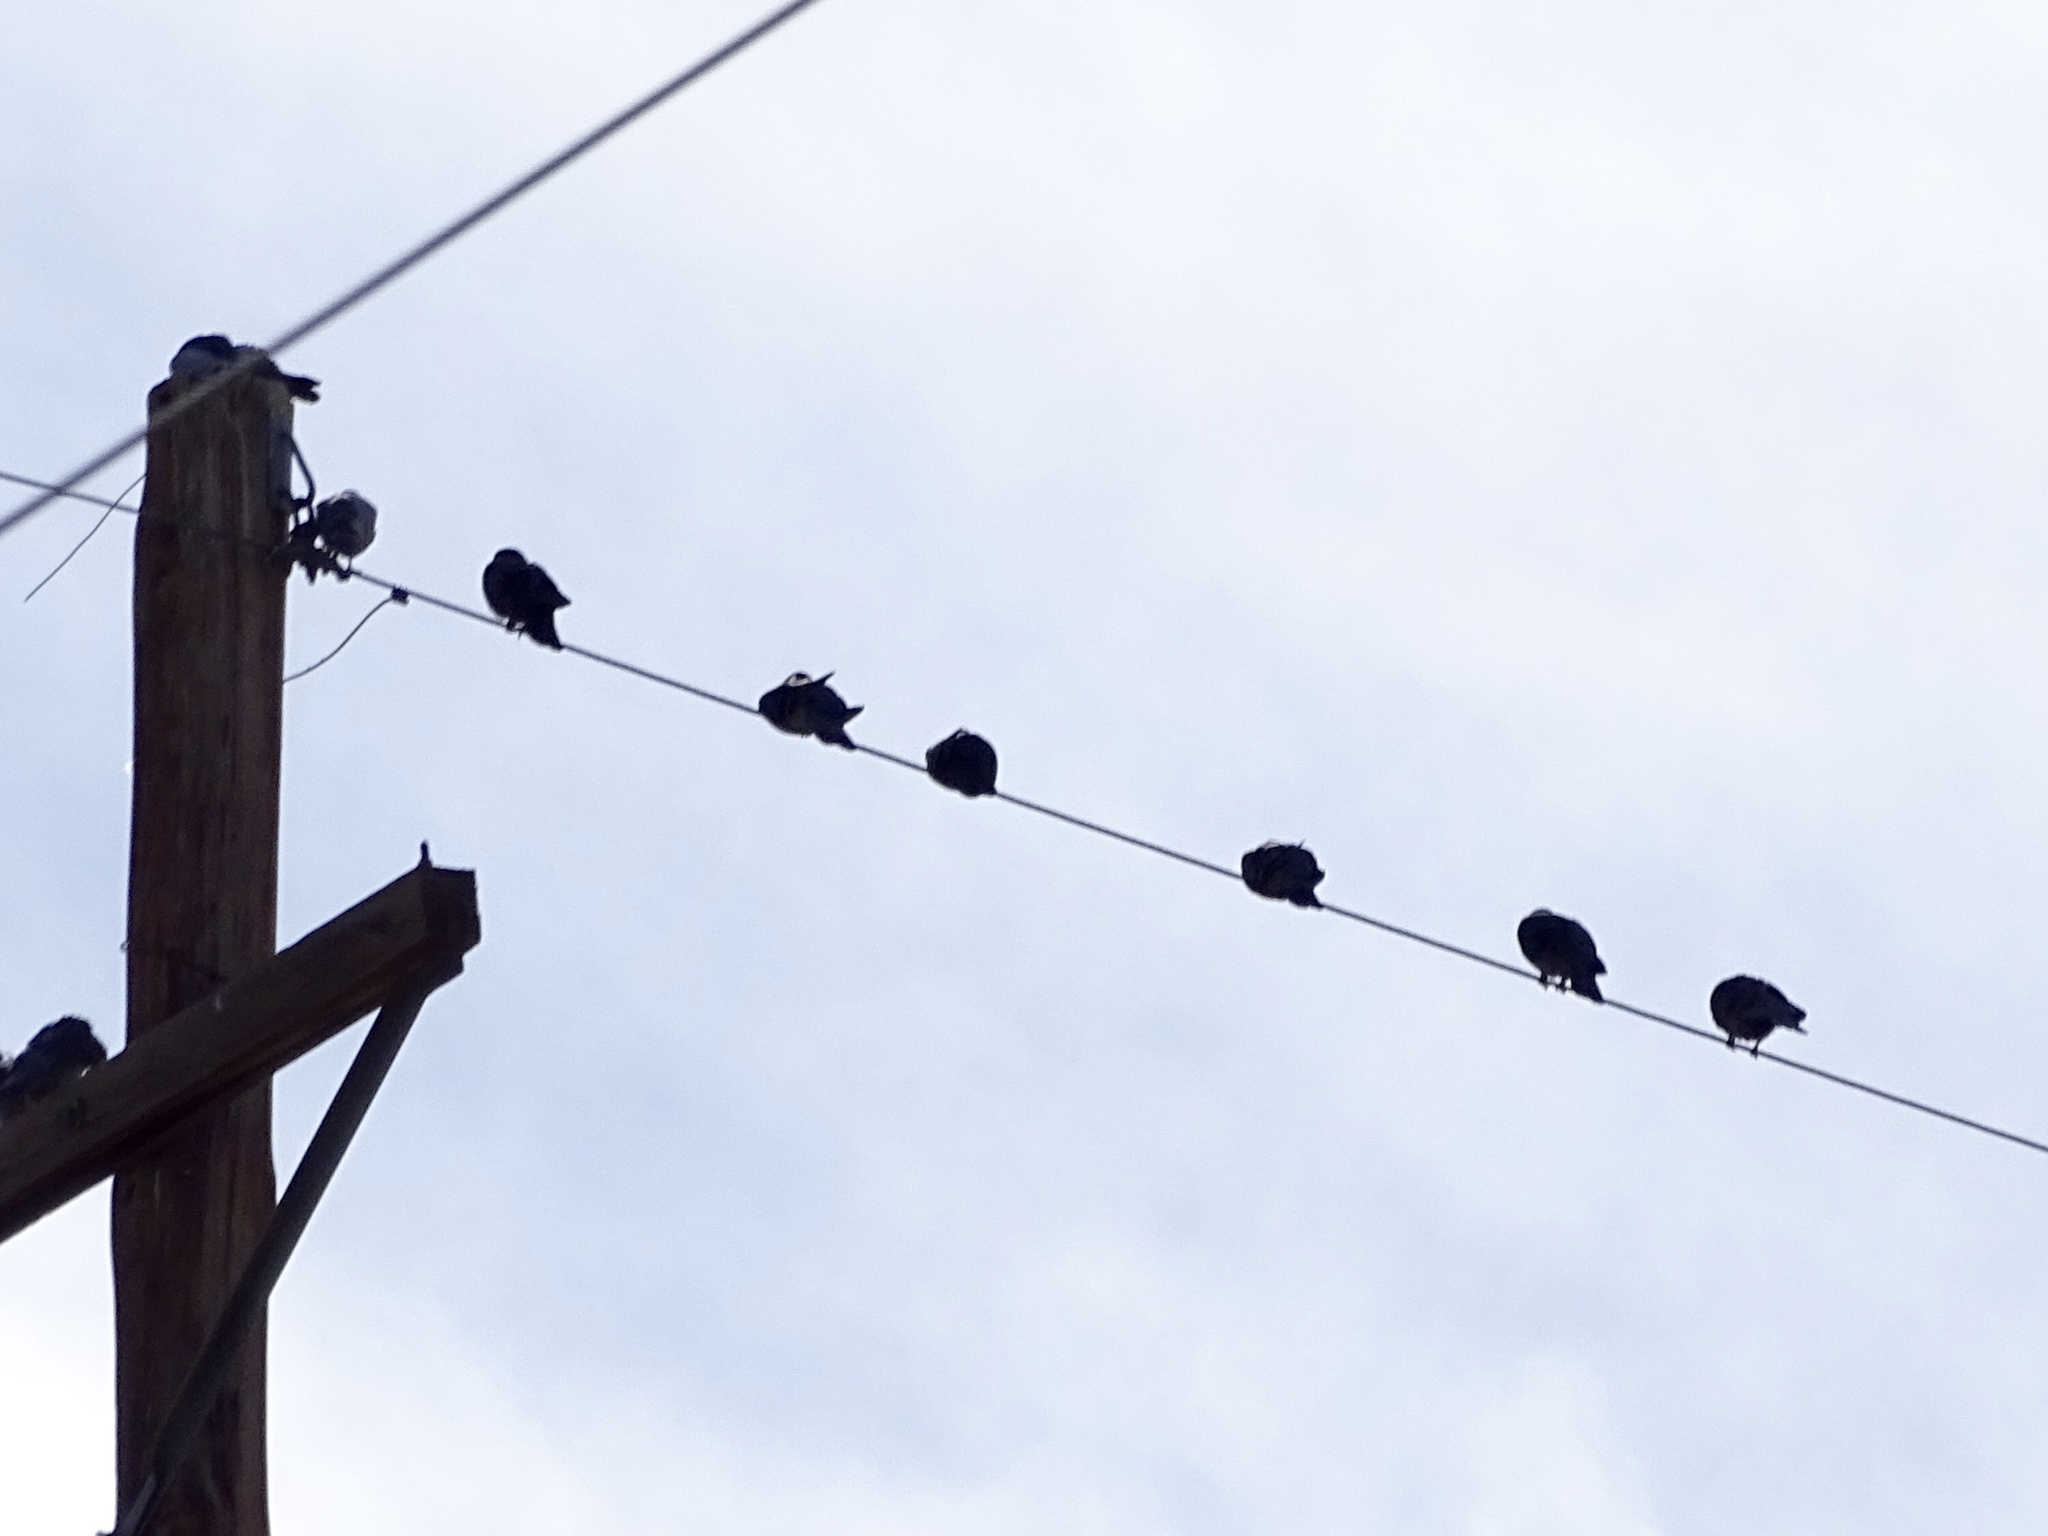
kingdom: Animalia
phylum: Chordata
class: Aves
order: Columbiformes
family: Columbidae
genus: Columba
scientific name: Columba livia
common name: Rock pigeon
